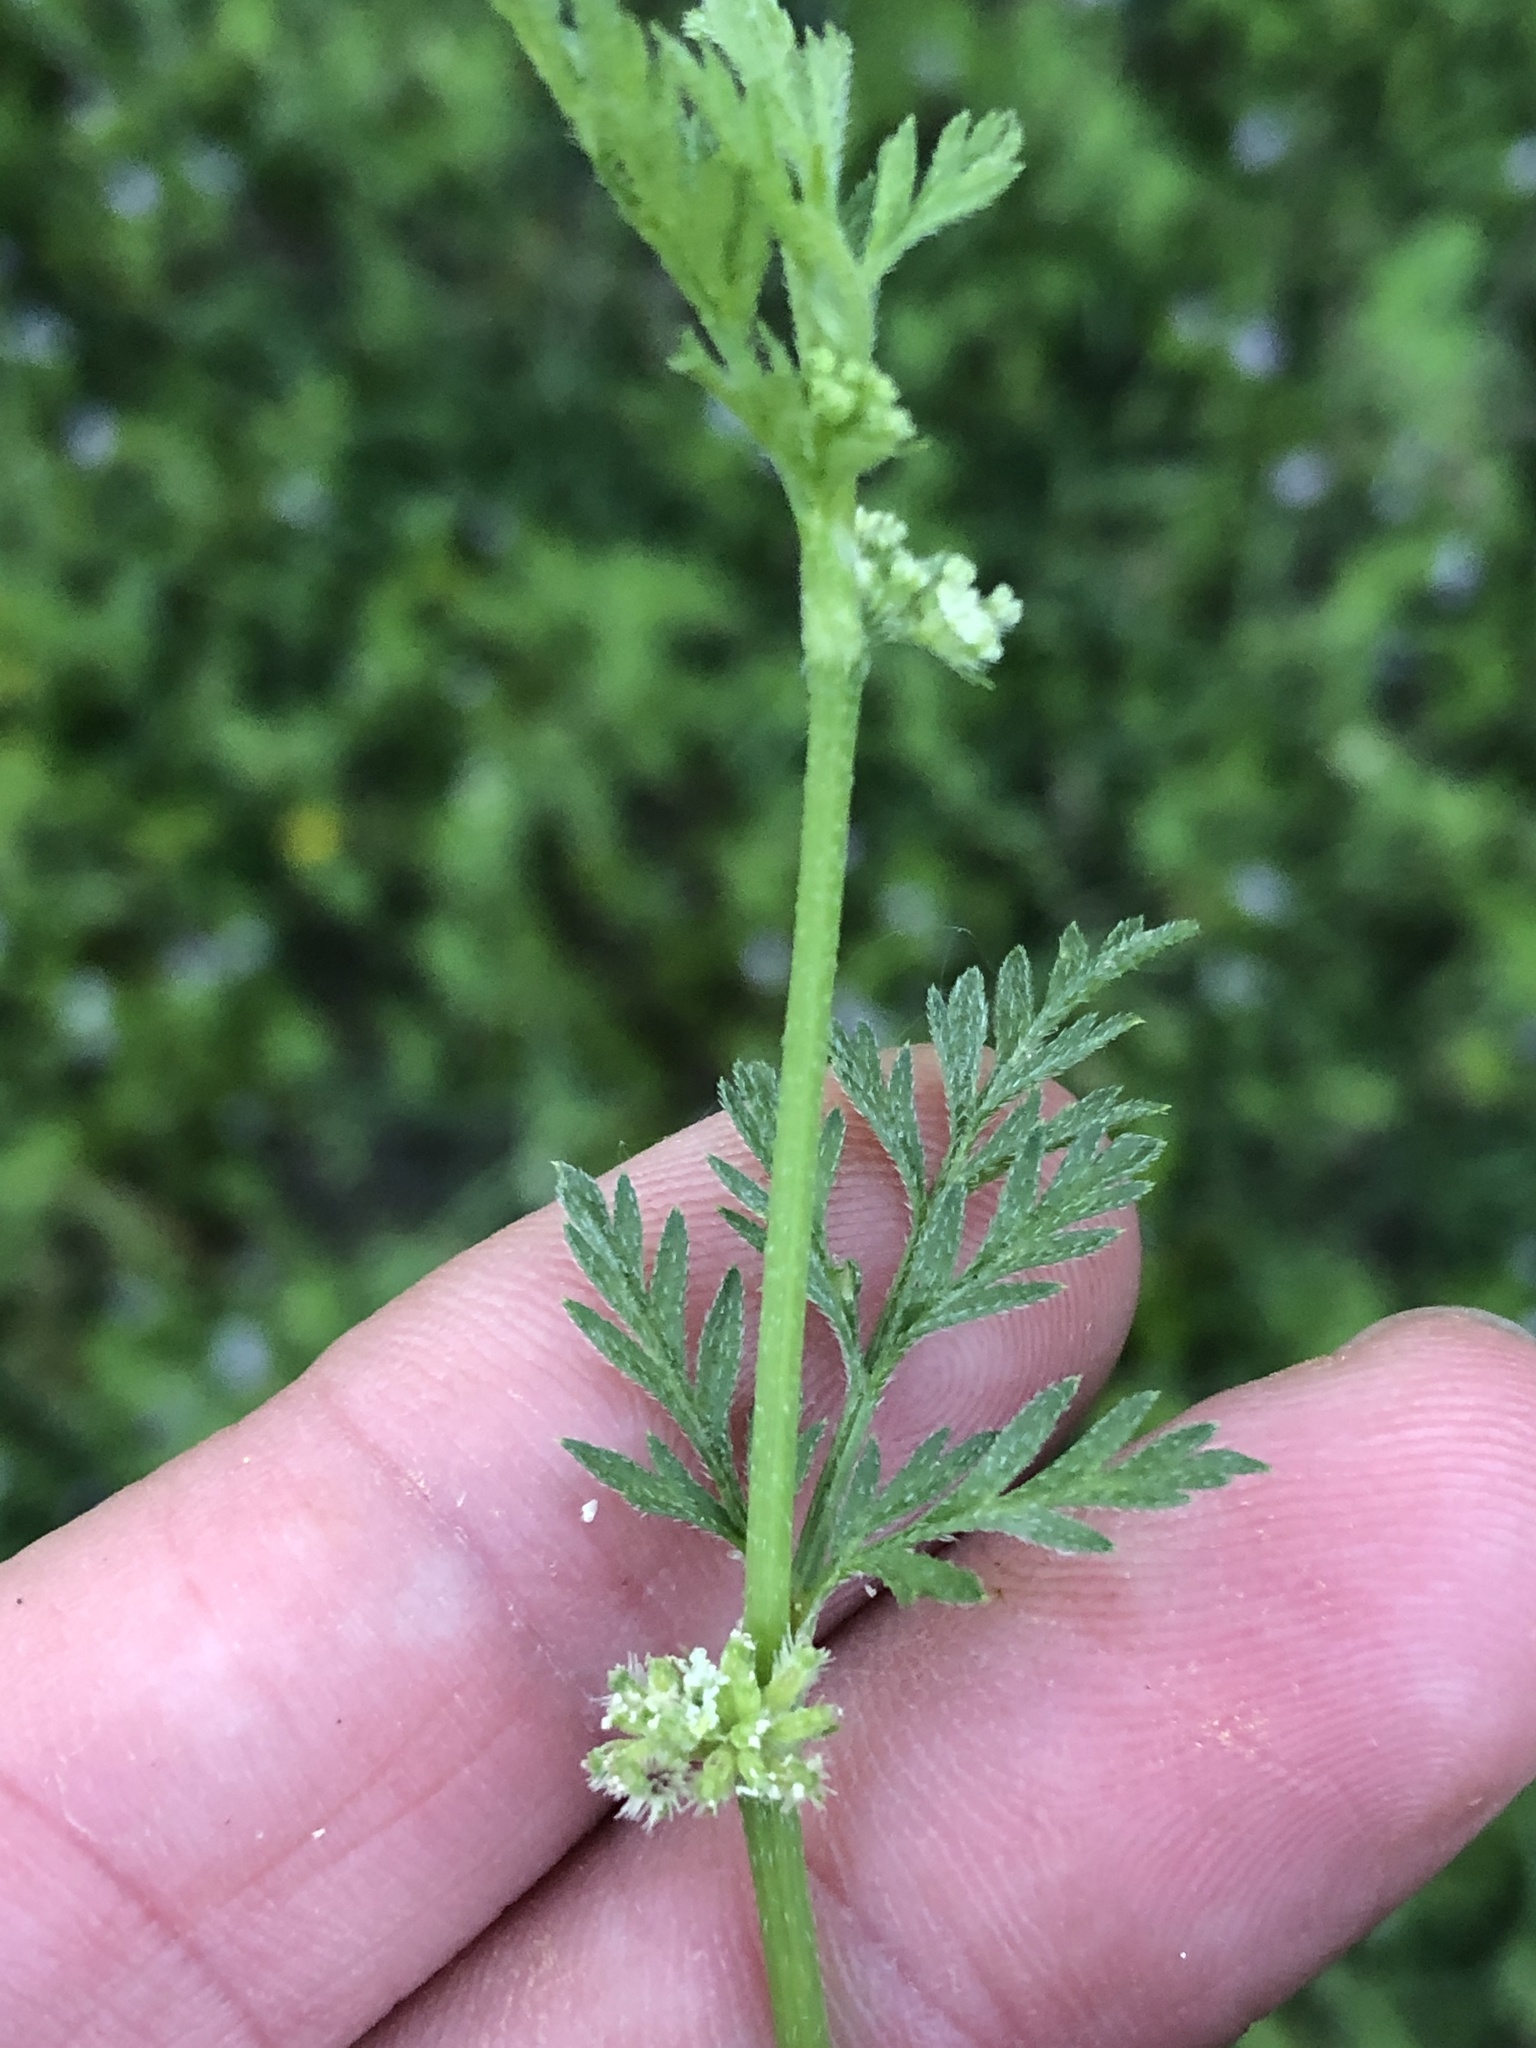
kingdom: Plantae
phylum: Tracheophyta
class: Magnoliopsida
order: Apiales
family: Apiaceae
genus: Torilis
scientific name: Torilis nodosa
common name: Knotted hedge-parsley
